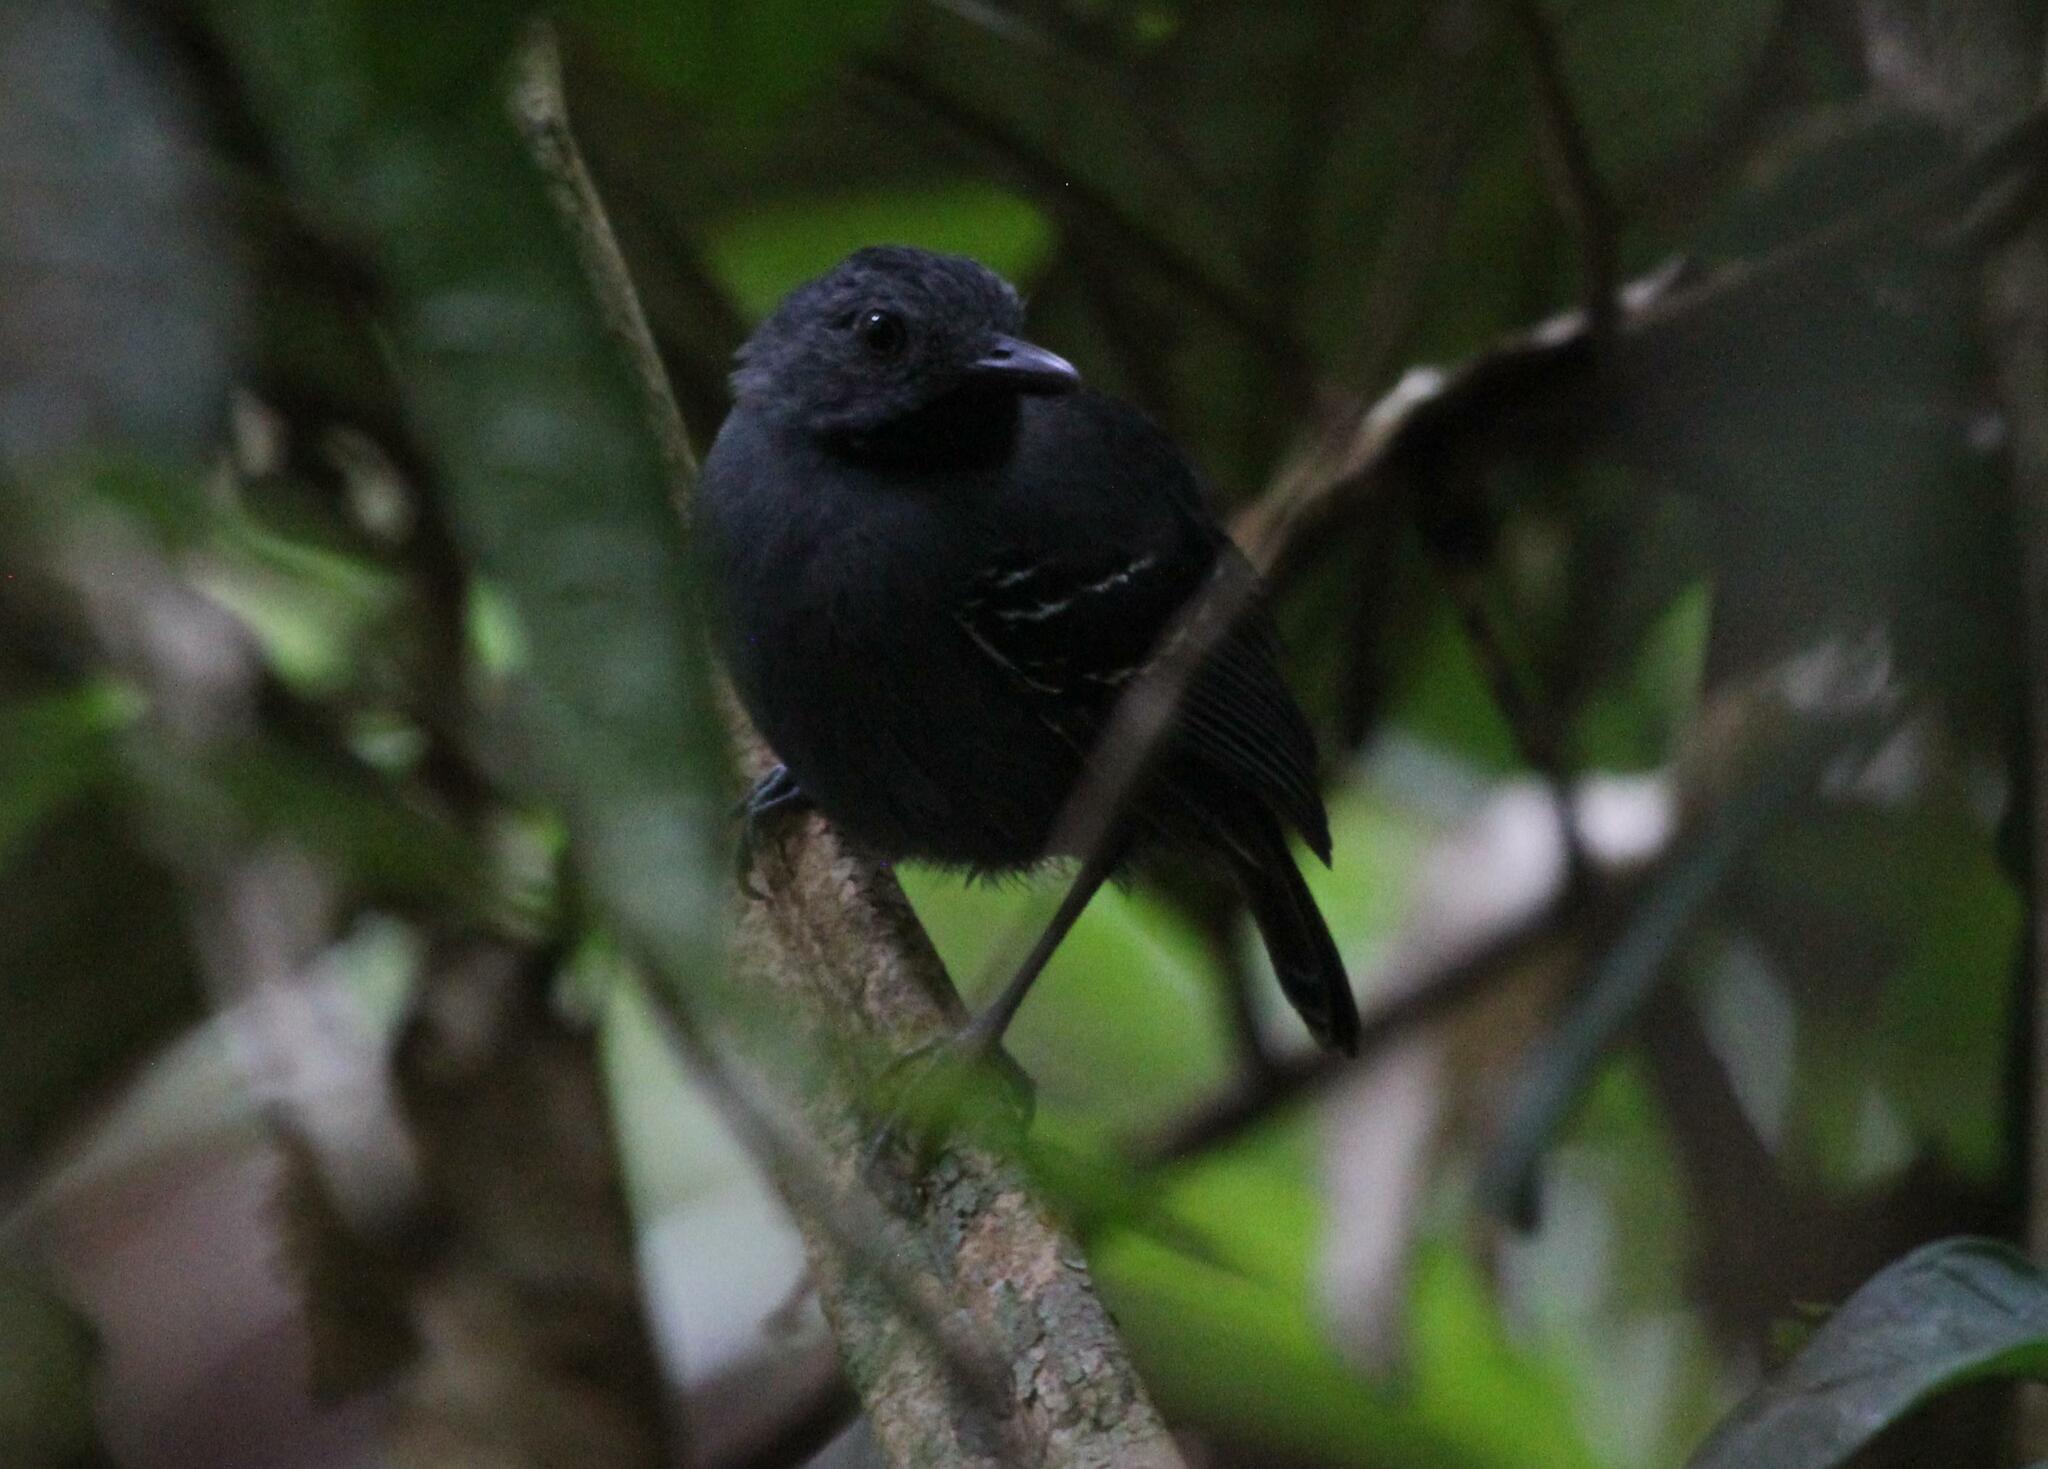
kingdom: Animalia
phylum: Chordata
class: Aves
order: Passeriformes
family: Thamnophilidae
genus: Percnostola
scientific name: Percnostola rufifrons
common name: Black-headed antbird
